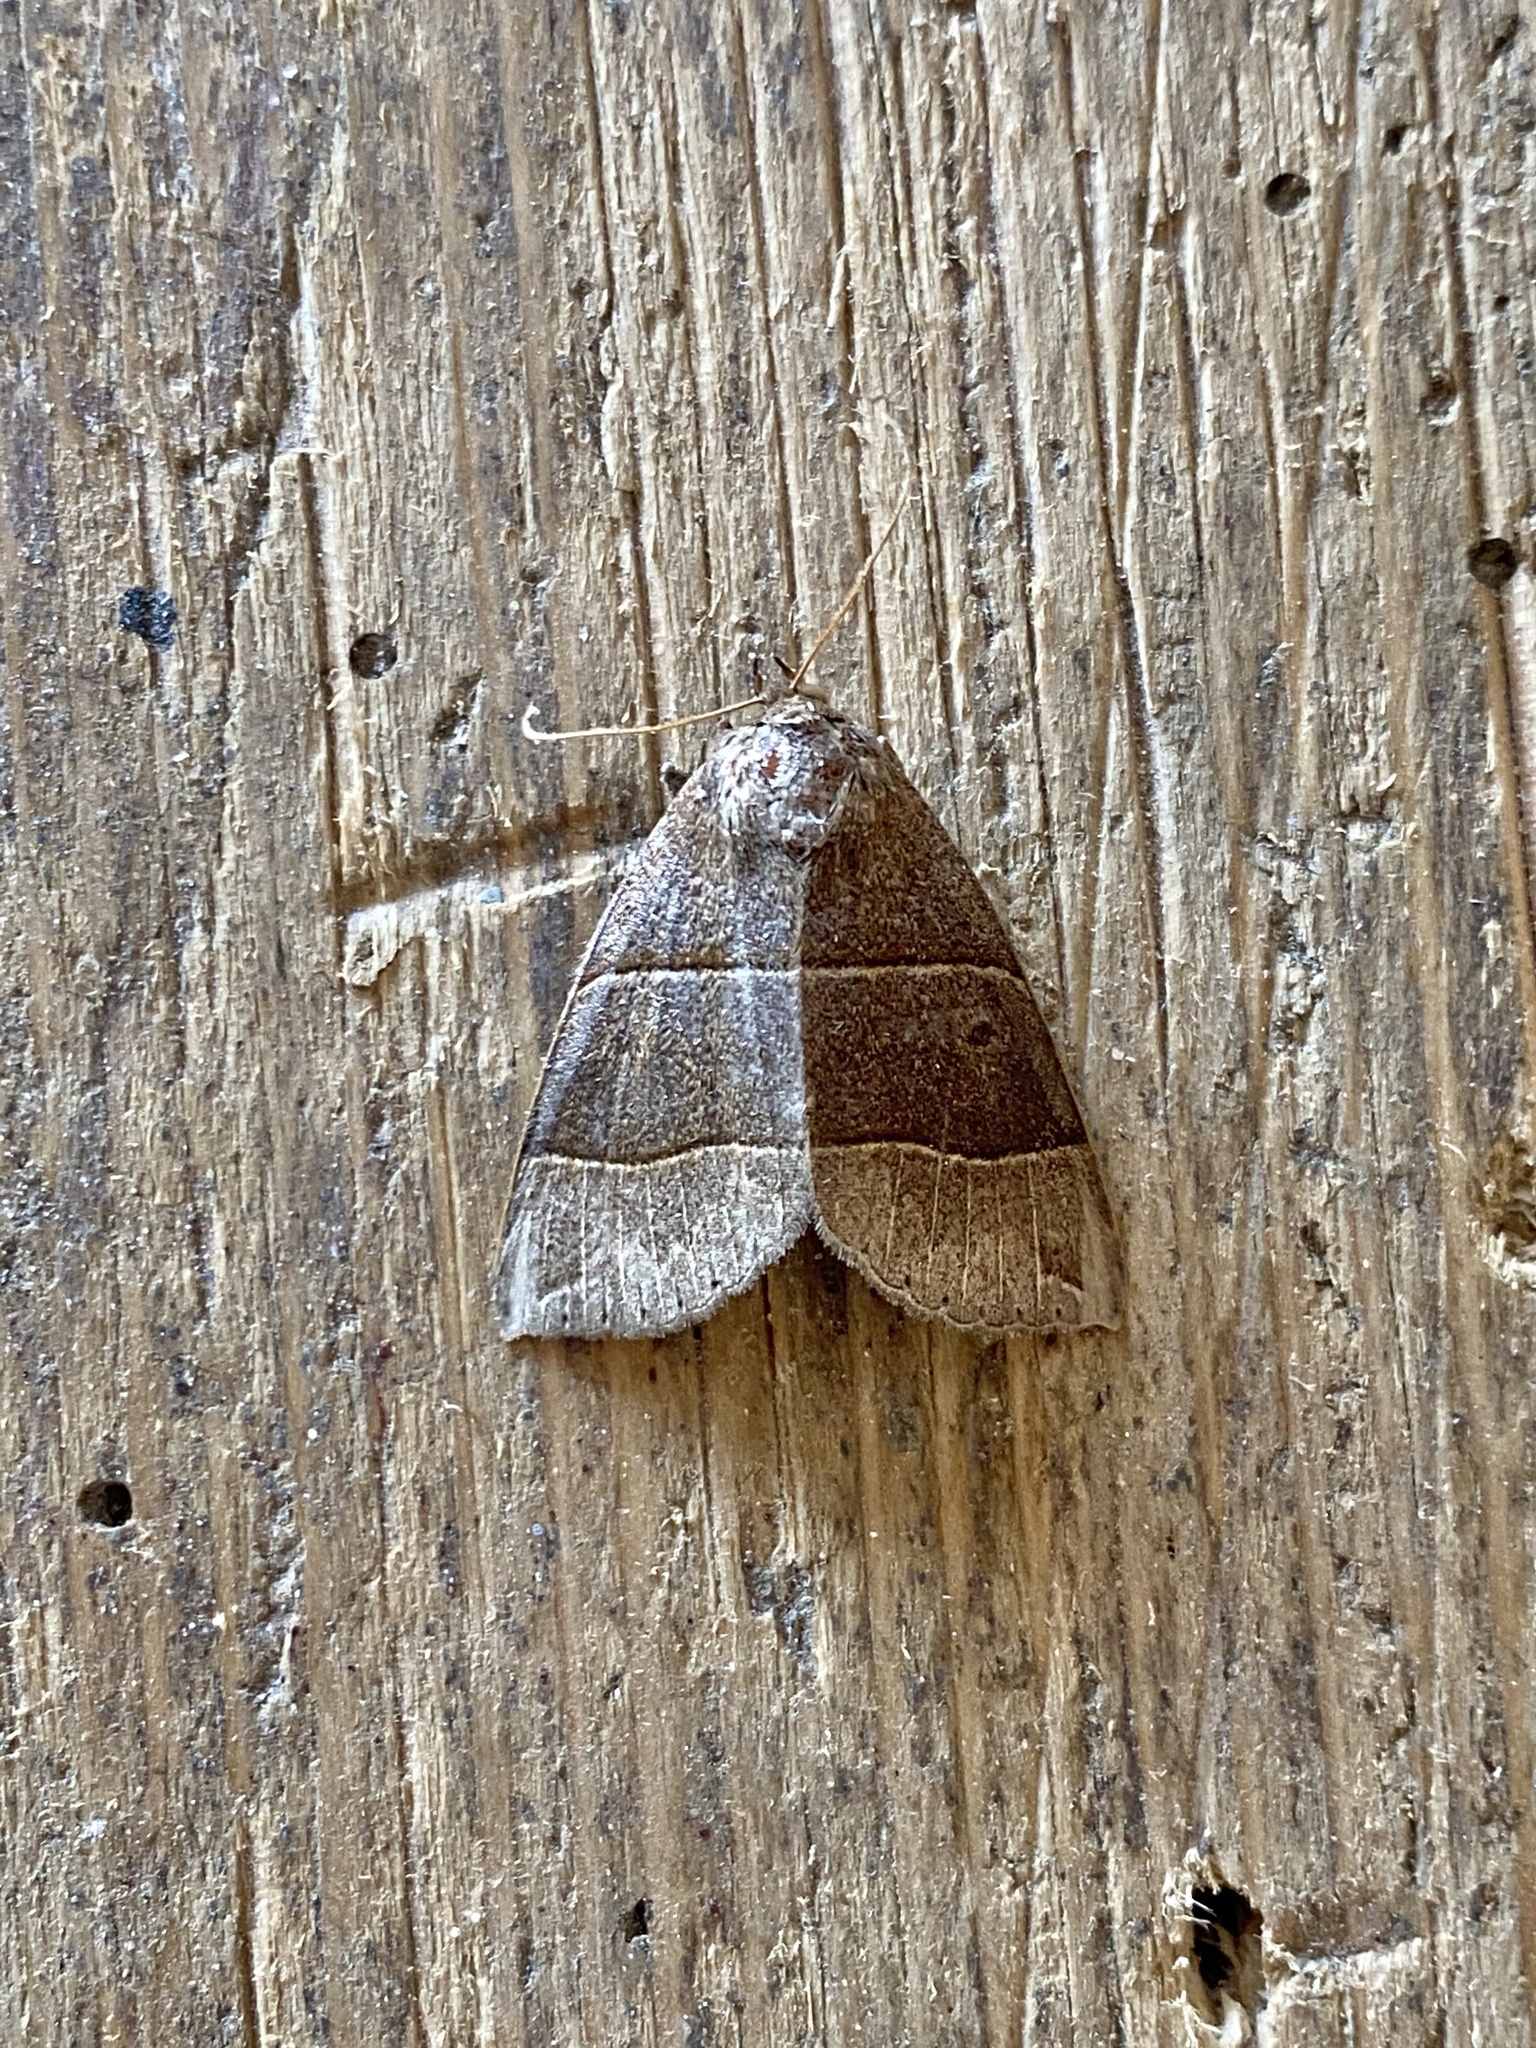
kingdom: Animalia
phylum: Arthropoda
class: Insecta
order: Lepidoptera
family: Erebidae
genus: Parallelia
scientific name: Parallelia bistriaris
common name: Maple looper moth
